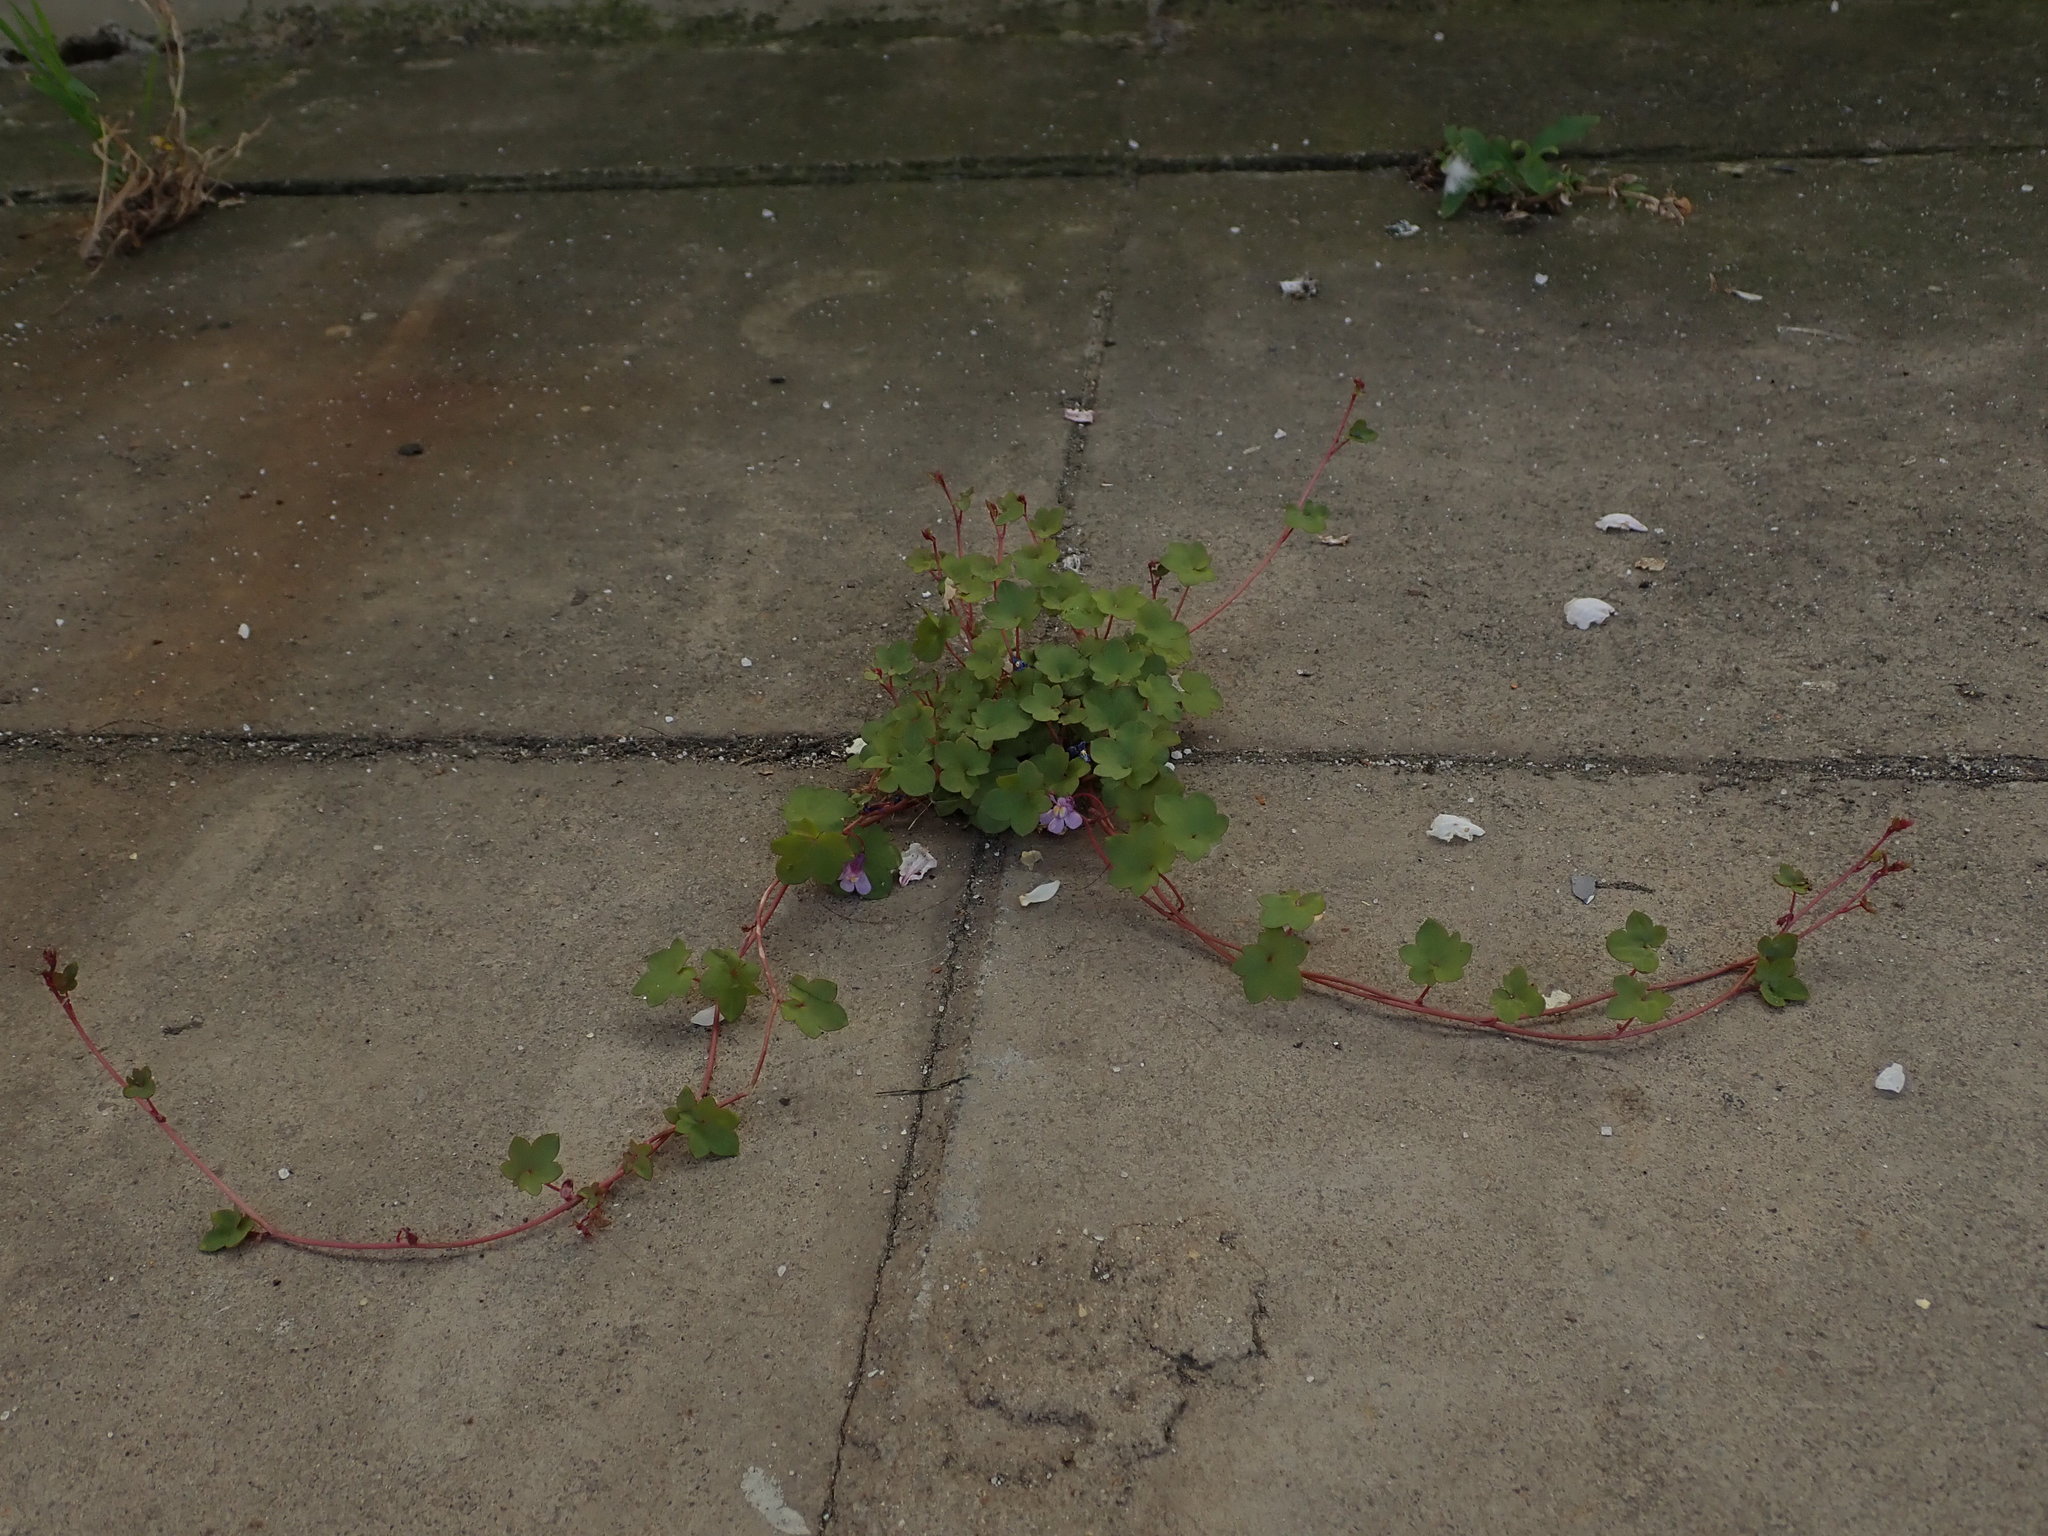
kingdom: Plantae
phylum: Tracheophyta
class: Magnoliopsida
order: Lamiales
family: Plantaginaceae
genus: Cymbalaria
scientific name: Cymbalaria muralis
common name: Ivy-leaved toadflax
